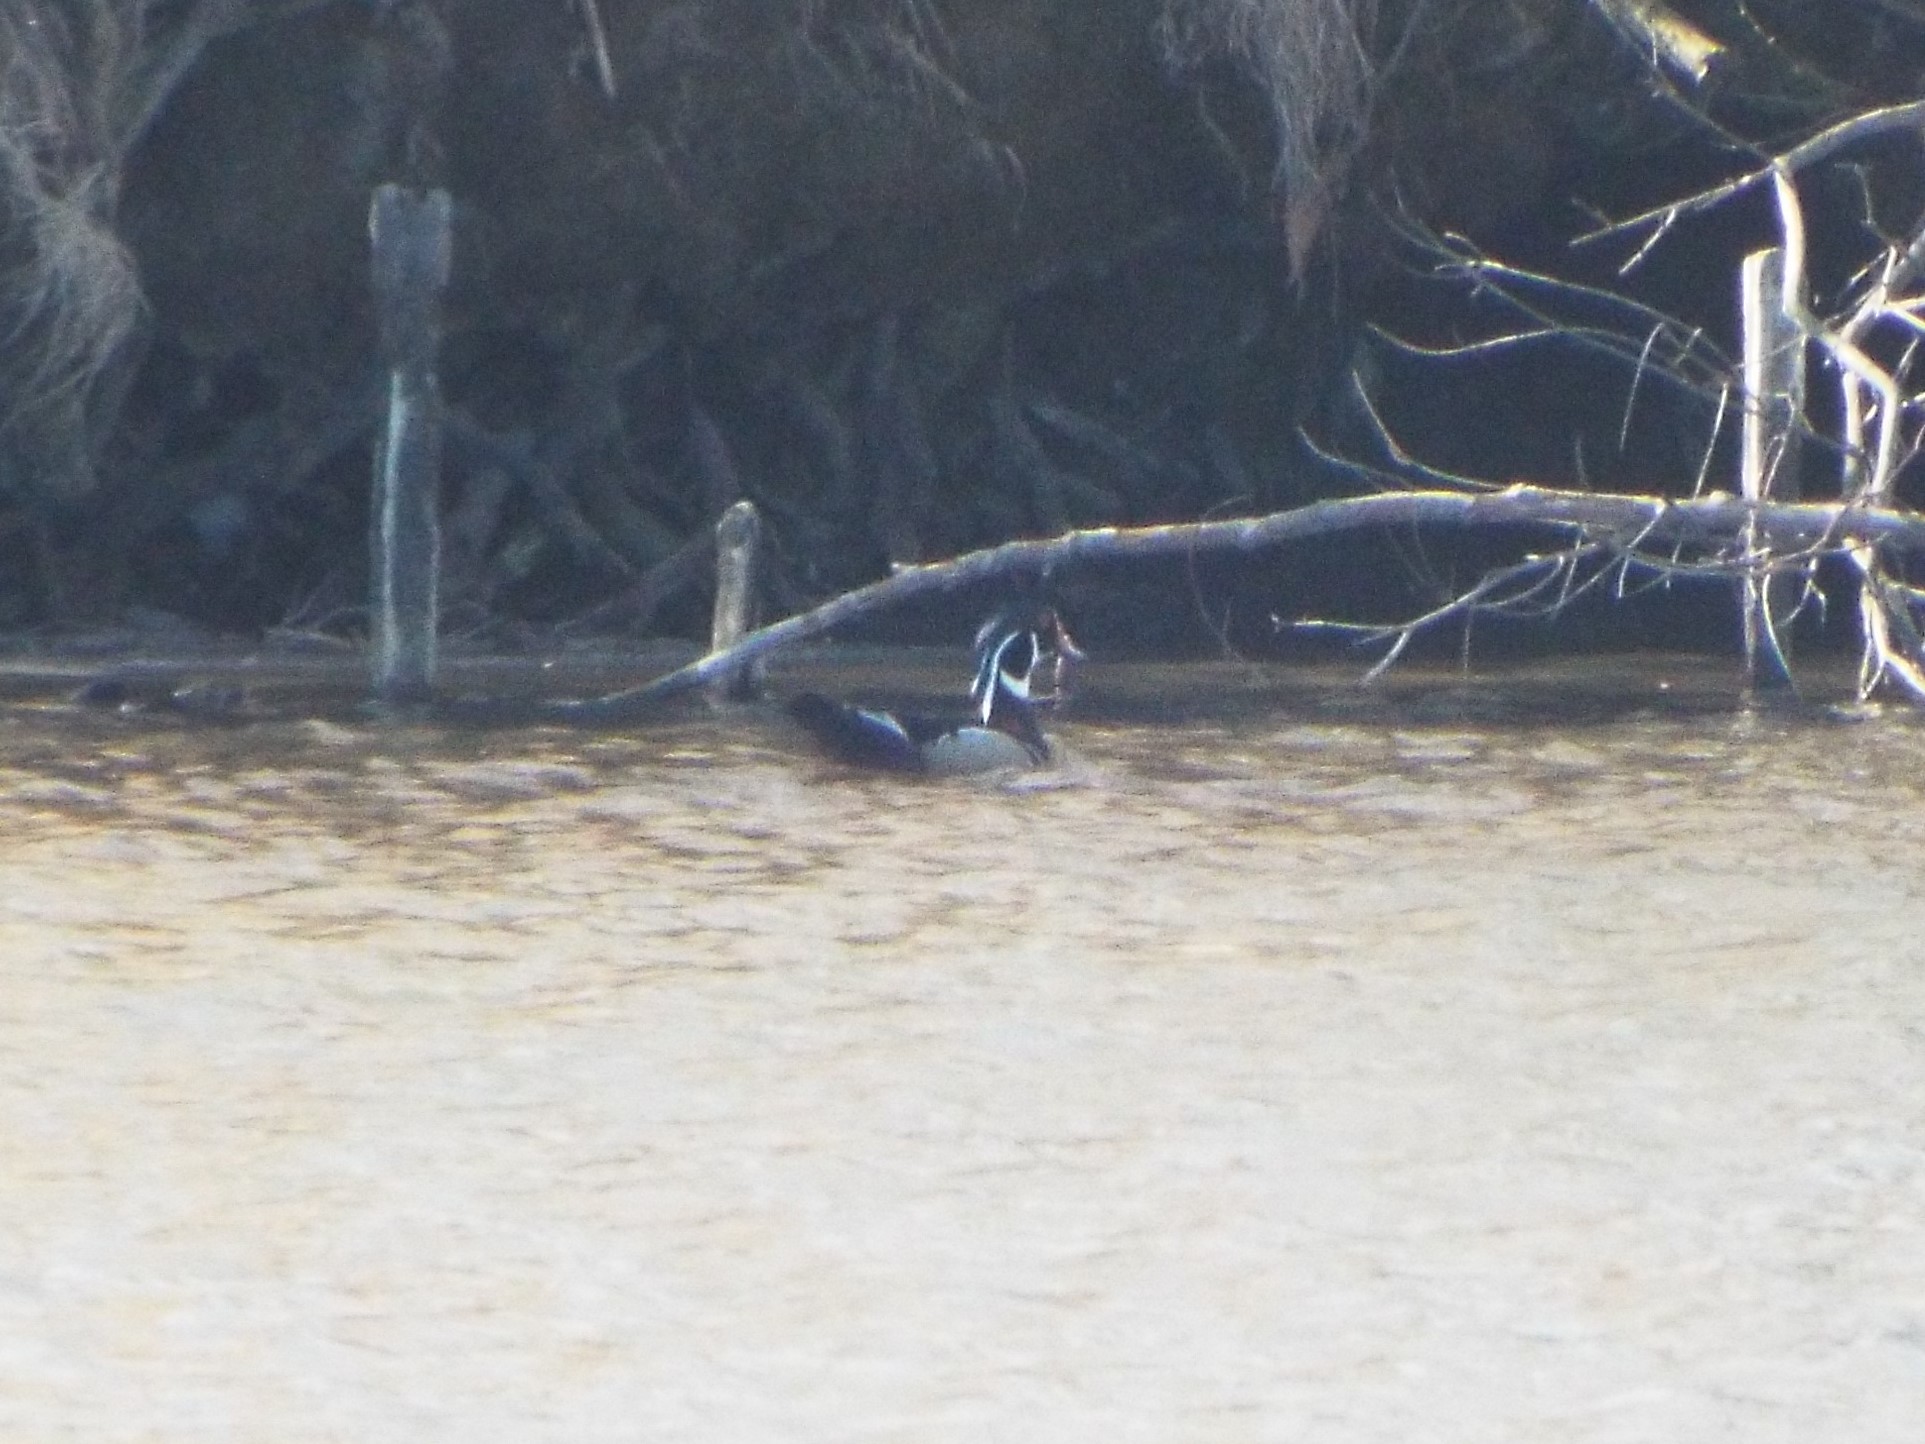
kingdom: Animalia
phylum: Chordata
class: Aves
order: Anseriformes
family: Anatidae
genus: Aix
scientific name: Aix sponsa
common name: Wood duck
